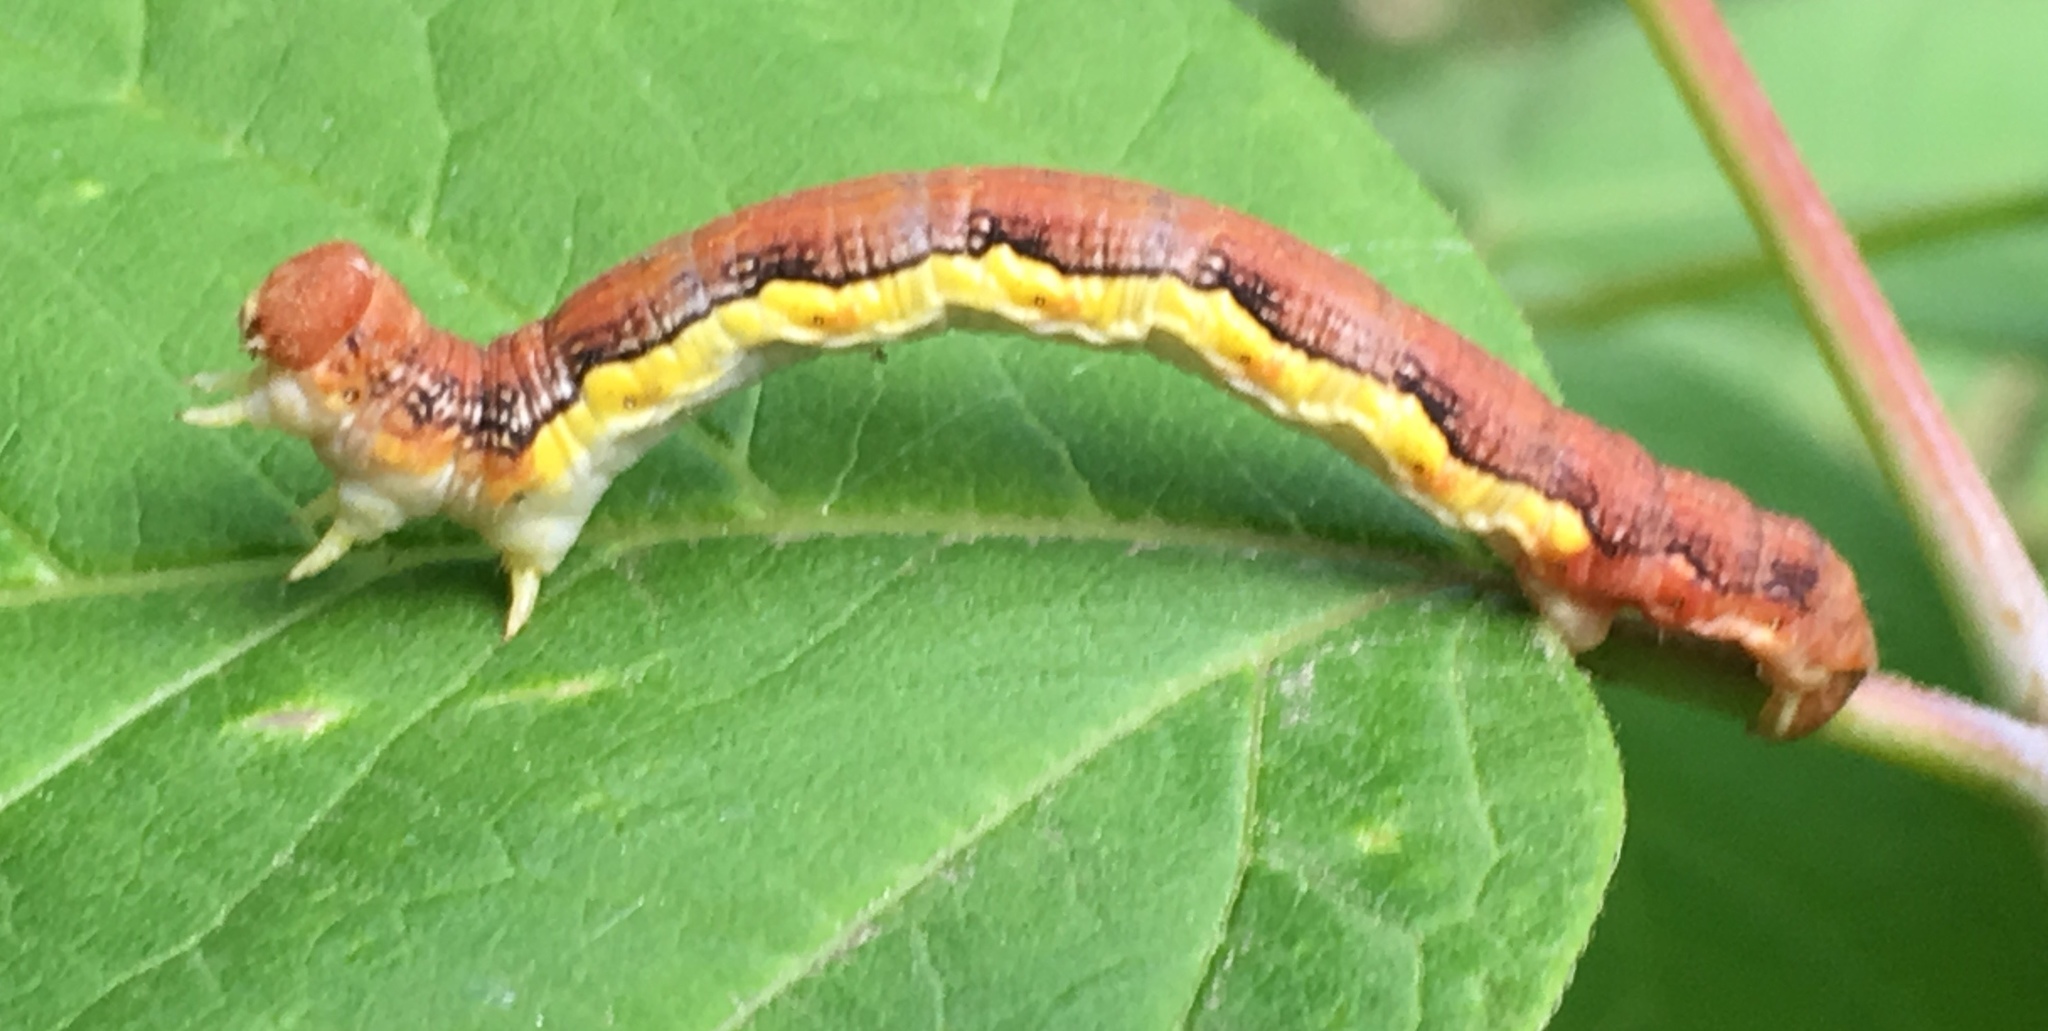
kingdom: Animalia
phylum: Arthropoda
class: Insecta
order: Lepidoptera
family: Geometridae
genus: Erannis
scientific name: Erannis tiliaria
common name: Linden looper
